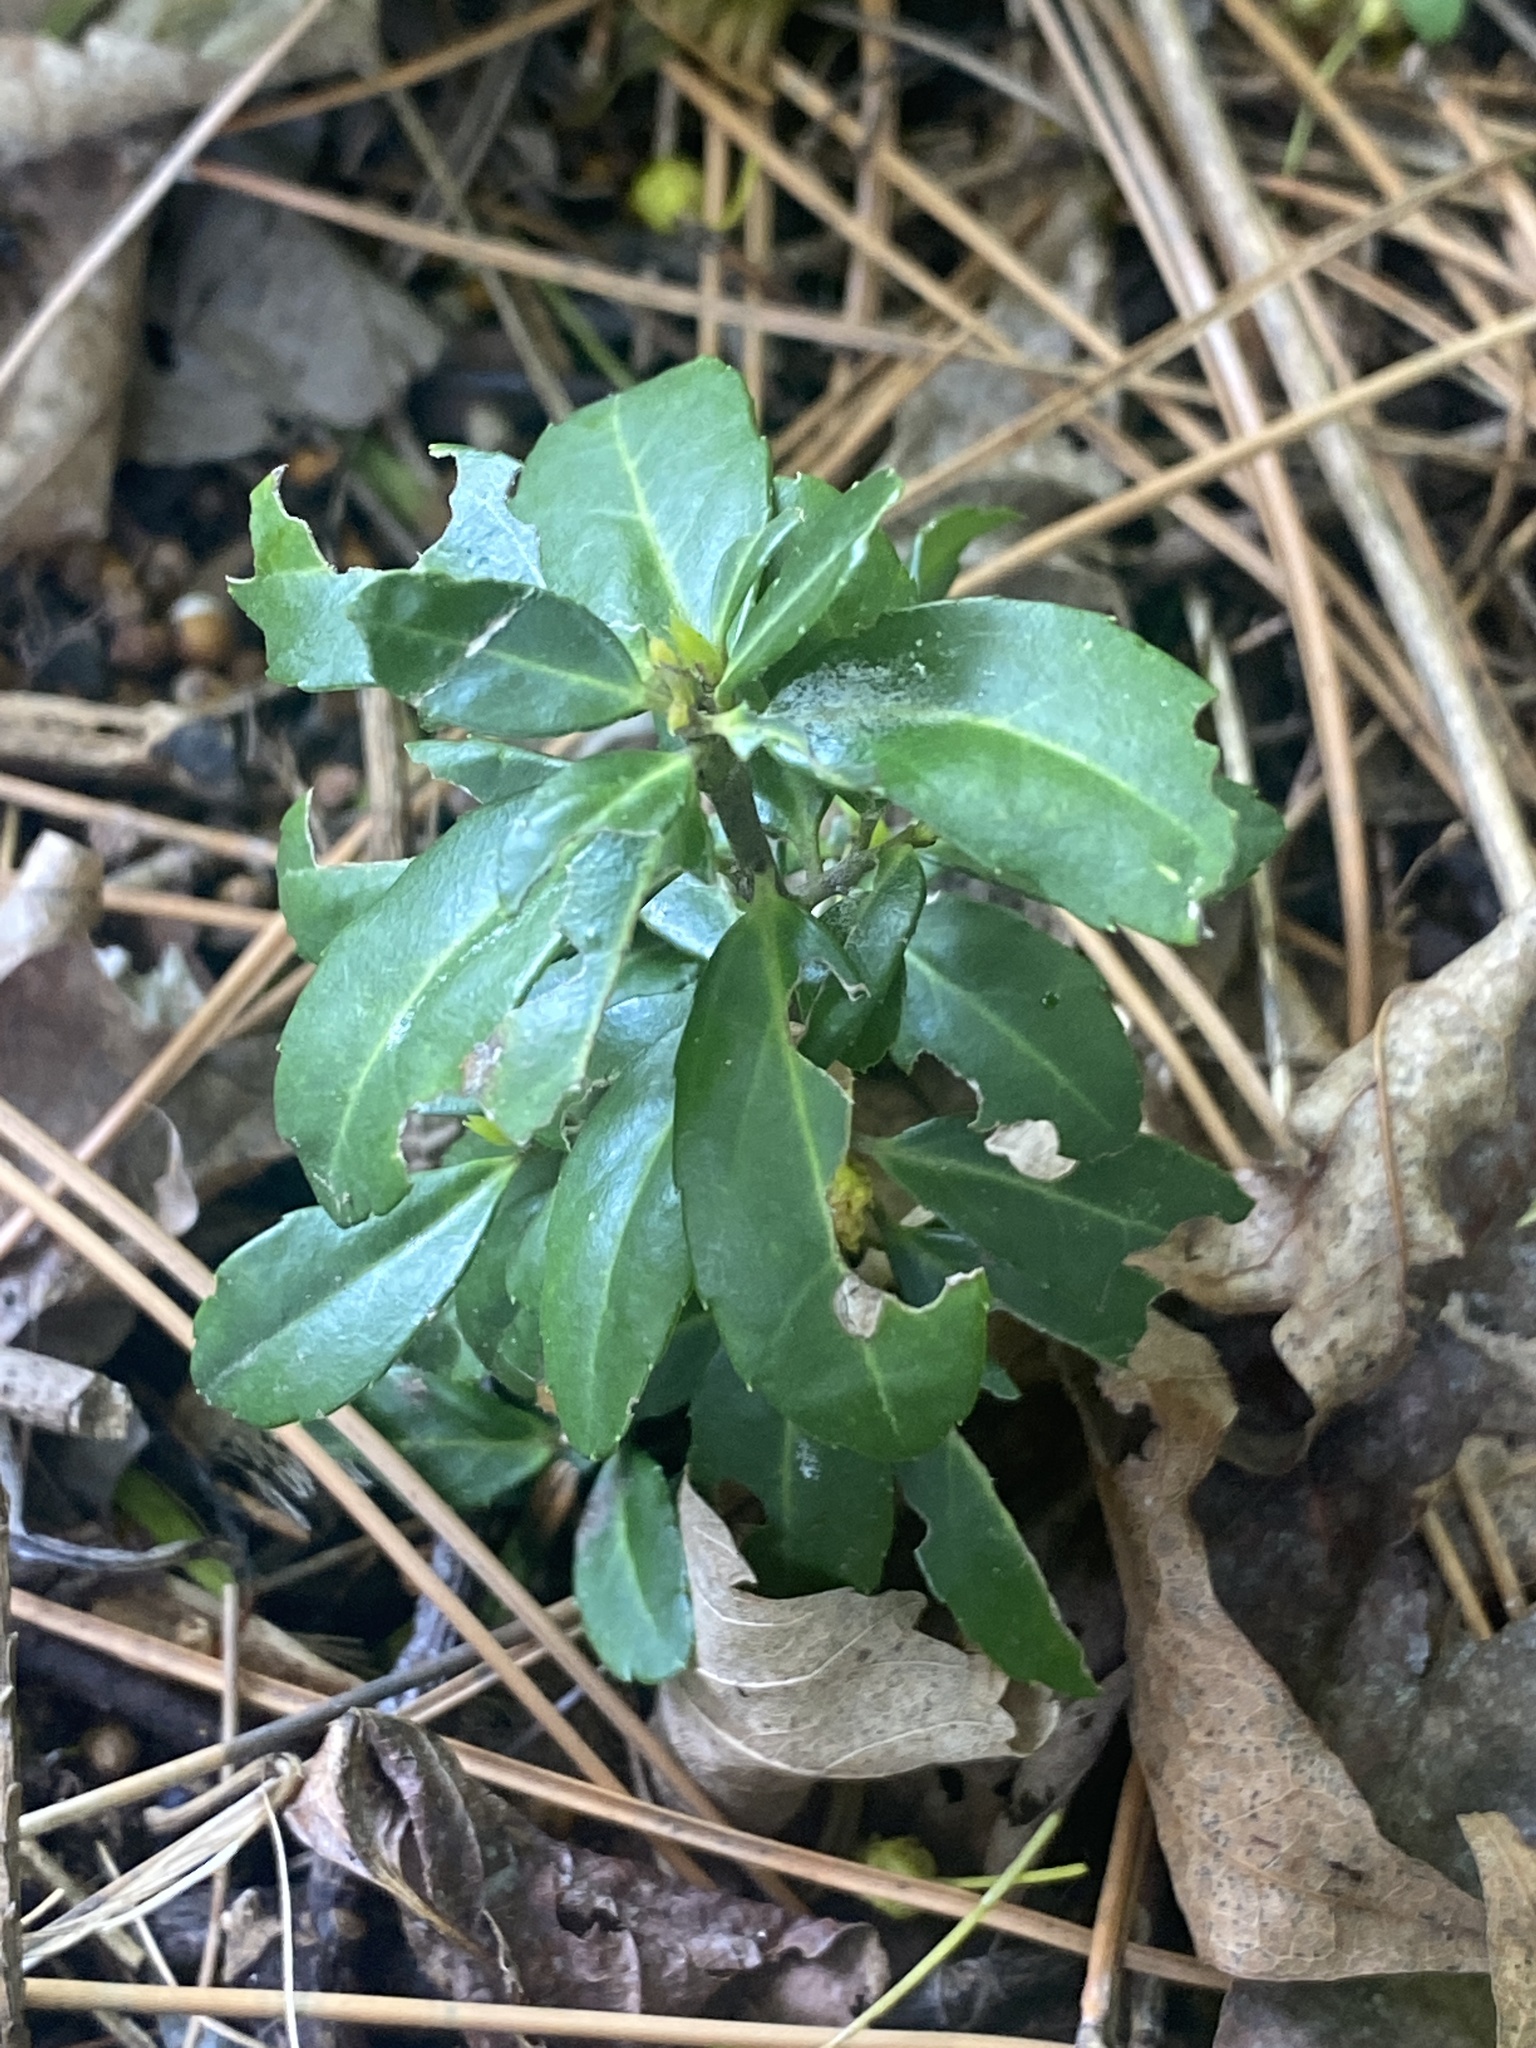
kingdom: Plantae
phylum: Tracheophyta
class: Magnoliopsida
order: Aquifoliales
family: Aquifoliaceae
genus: Ilex
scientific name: Ilex crenata
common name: Japanese holly
